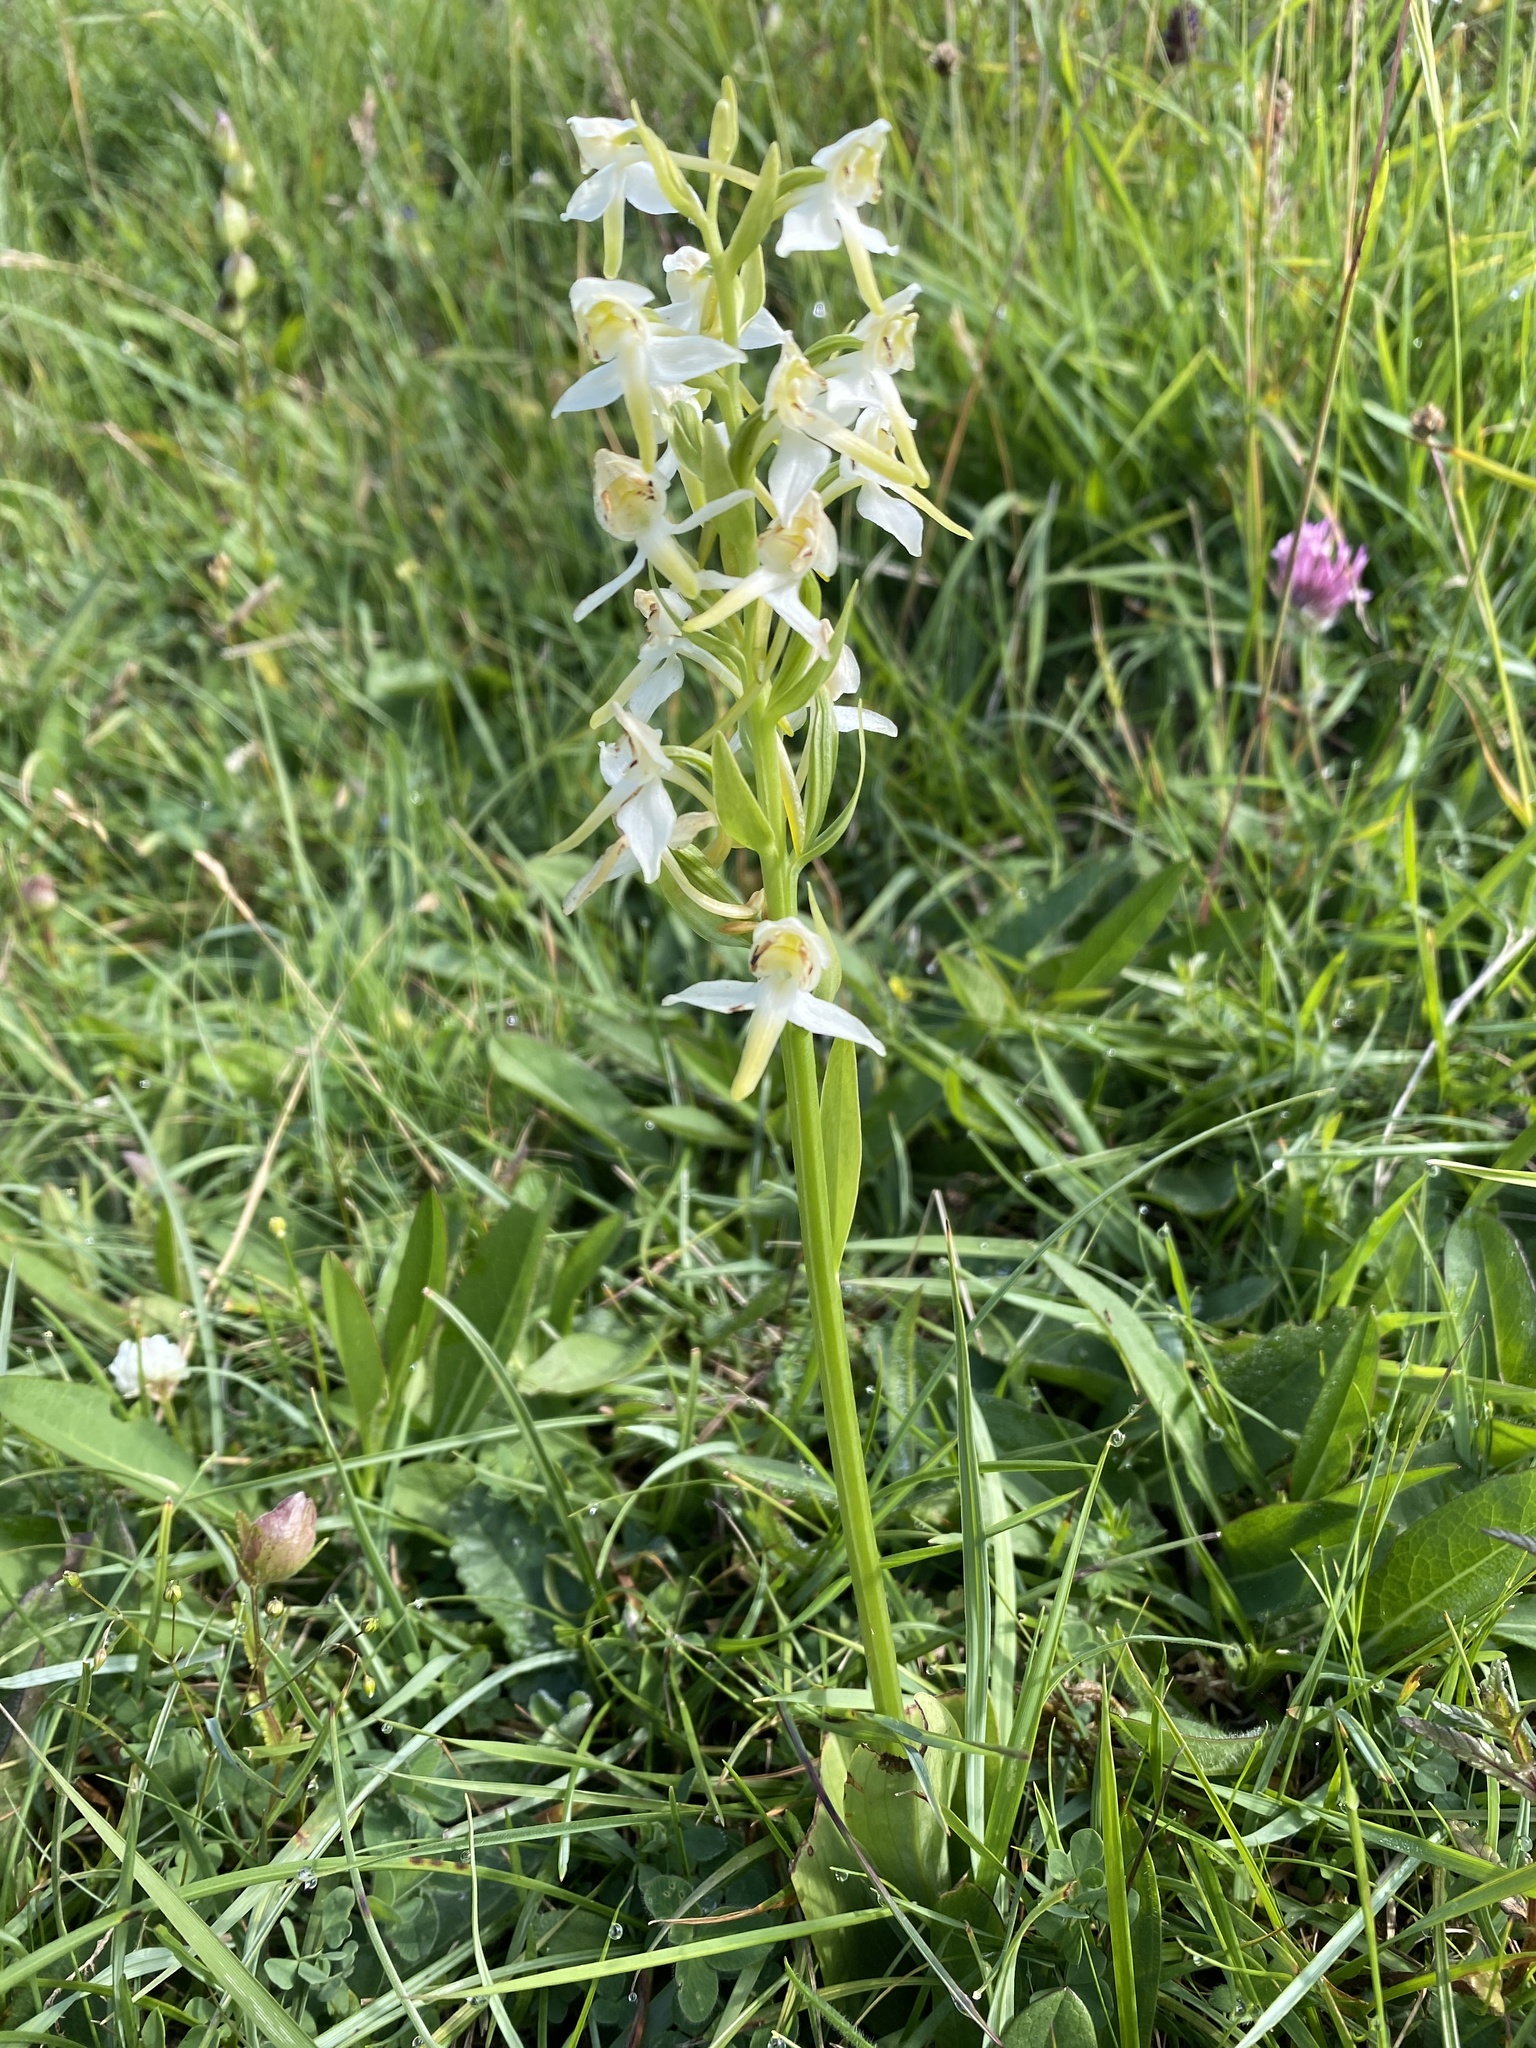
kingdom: Plantae
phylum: Tracheophyta
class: Liliopsida
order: Asparagales
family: Orchidaceae
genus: Platanthera
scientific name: Platanthera chlorantha
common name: Greater butterfly-orchid
